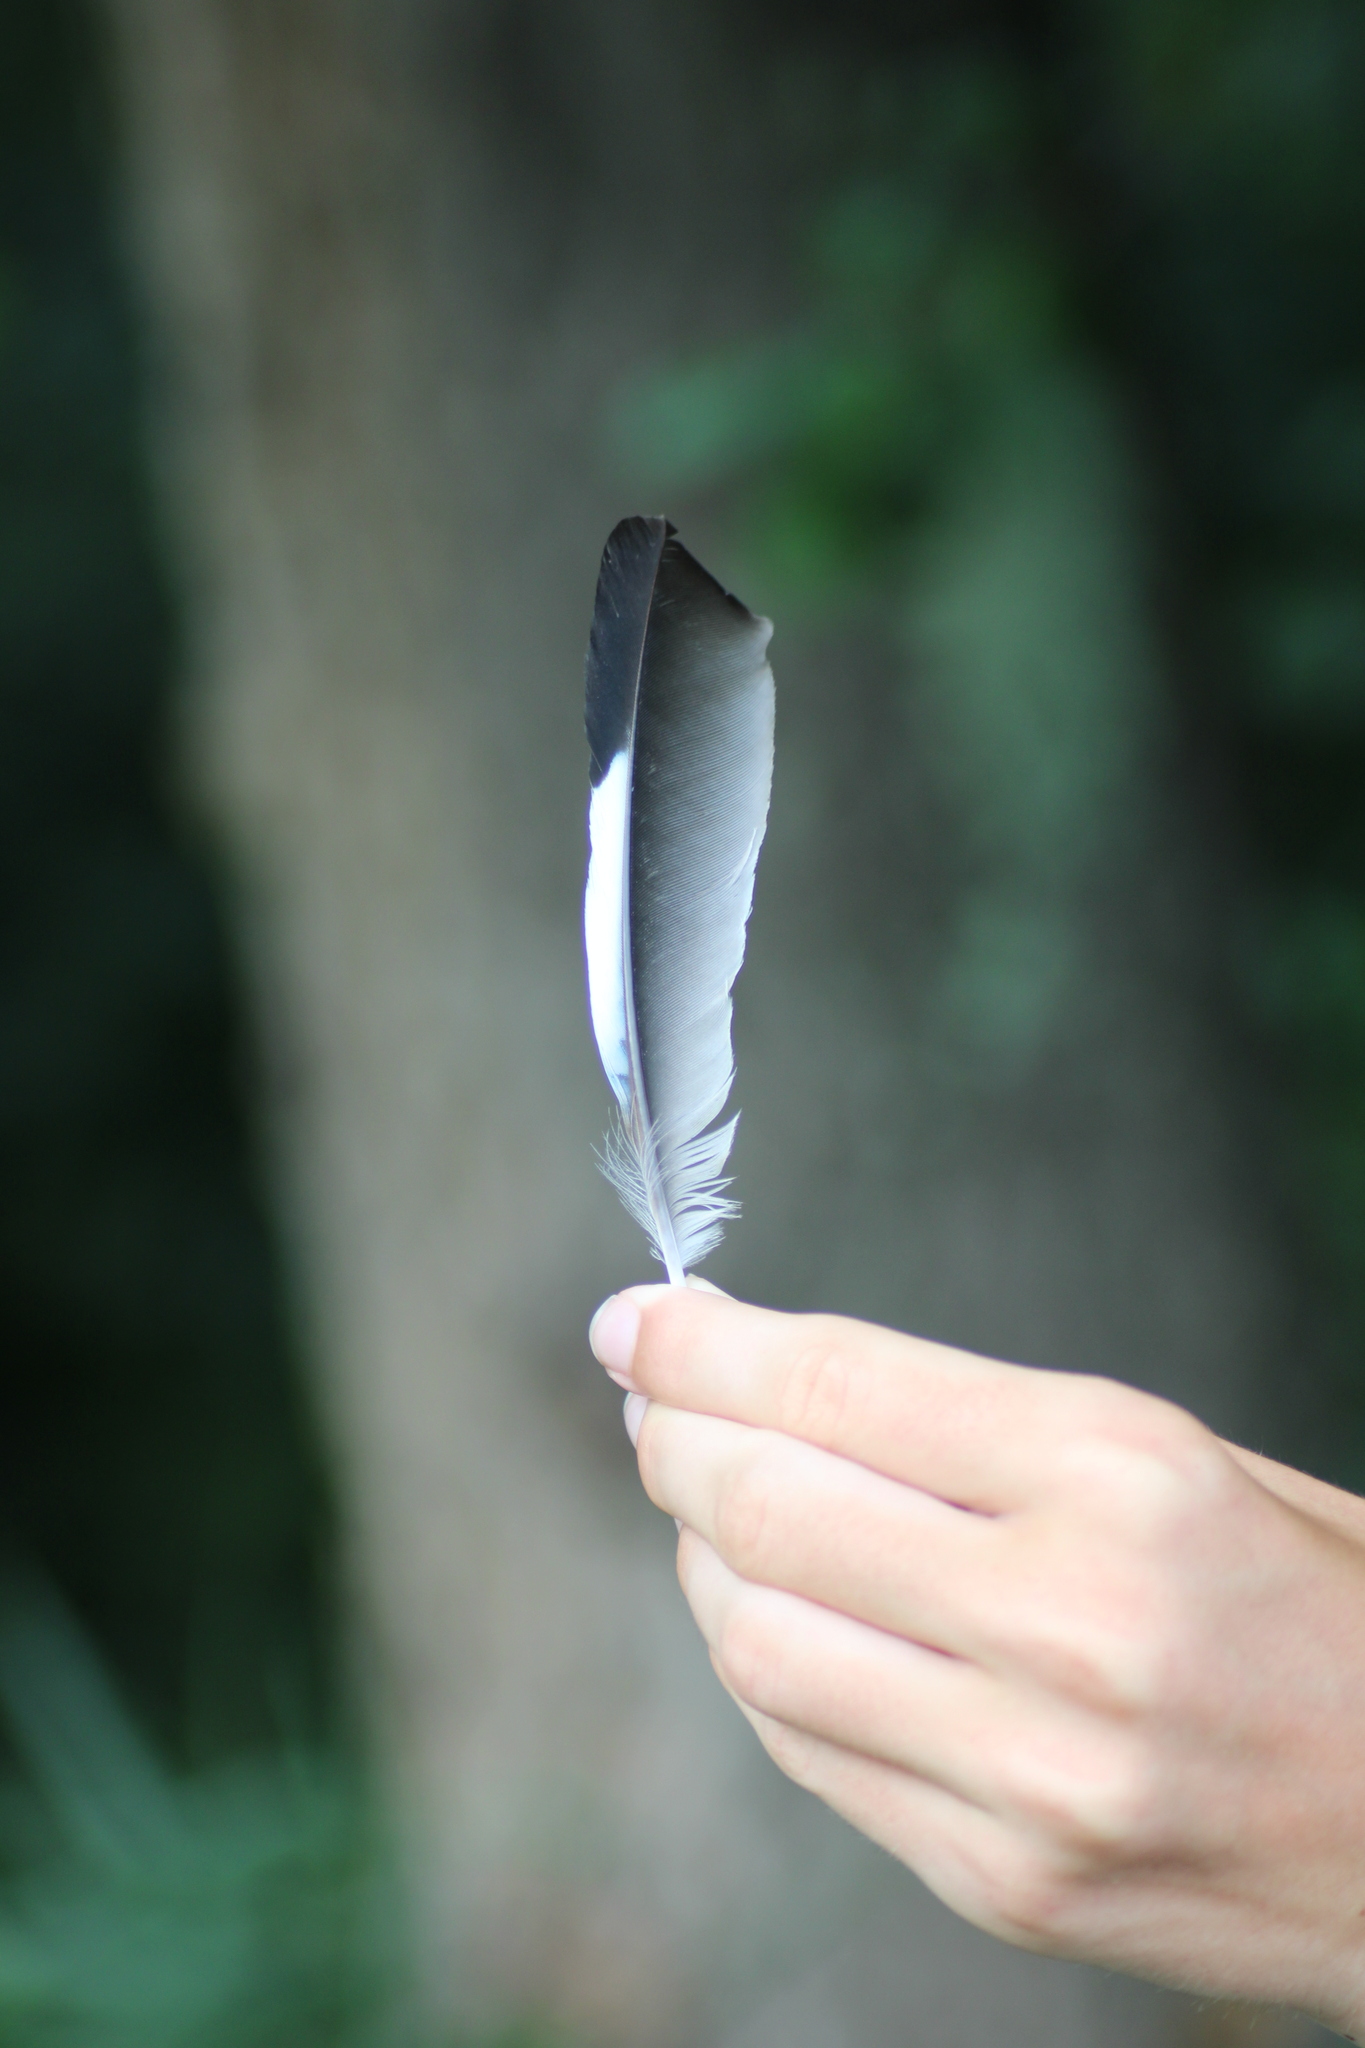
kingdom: Animalia
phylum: Chordata
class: Aves
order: Passeriformes
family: Corvidae
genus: Garrulus
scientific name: Garrulus glandarius
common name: Eurasian jay
